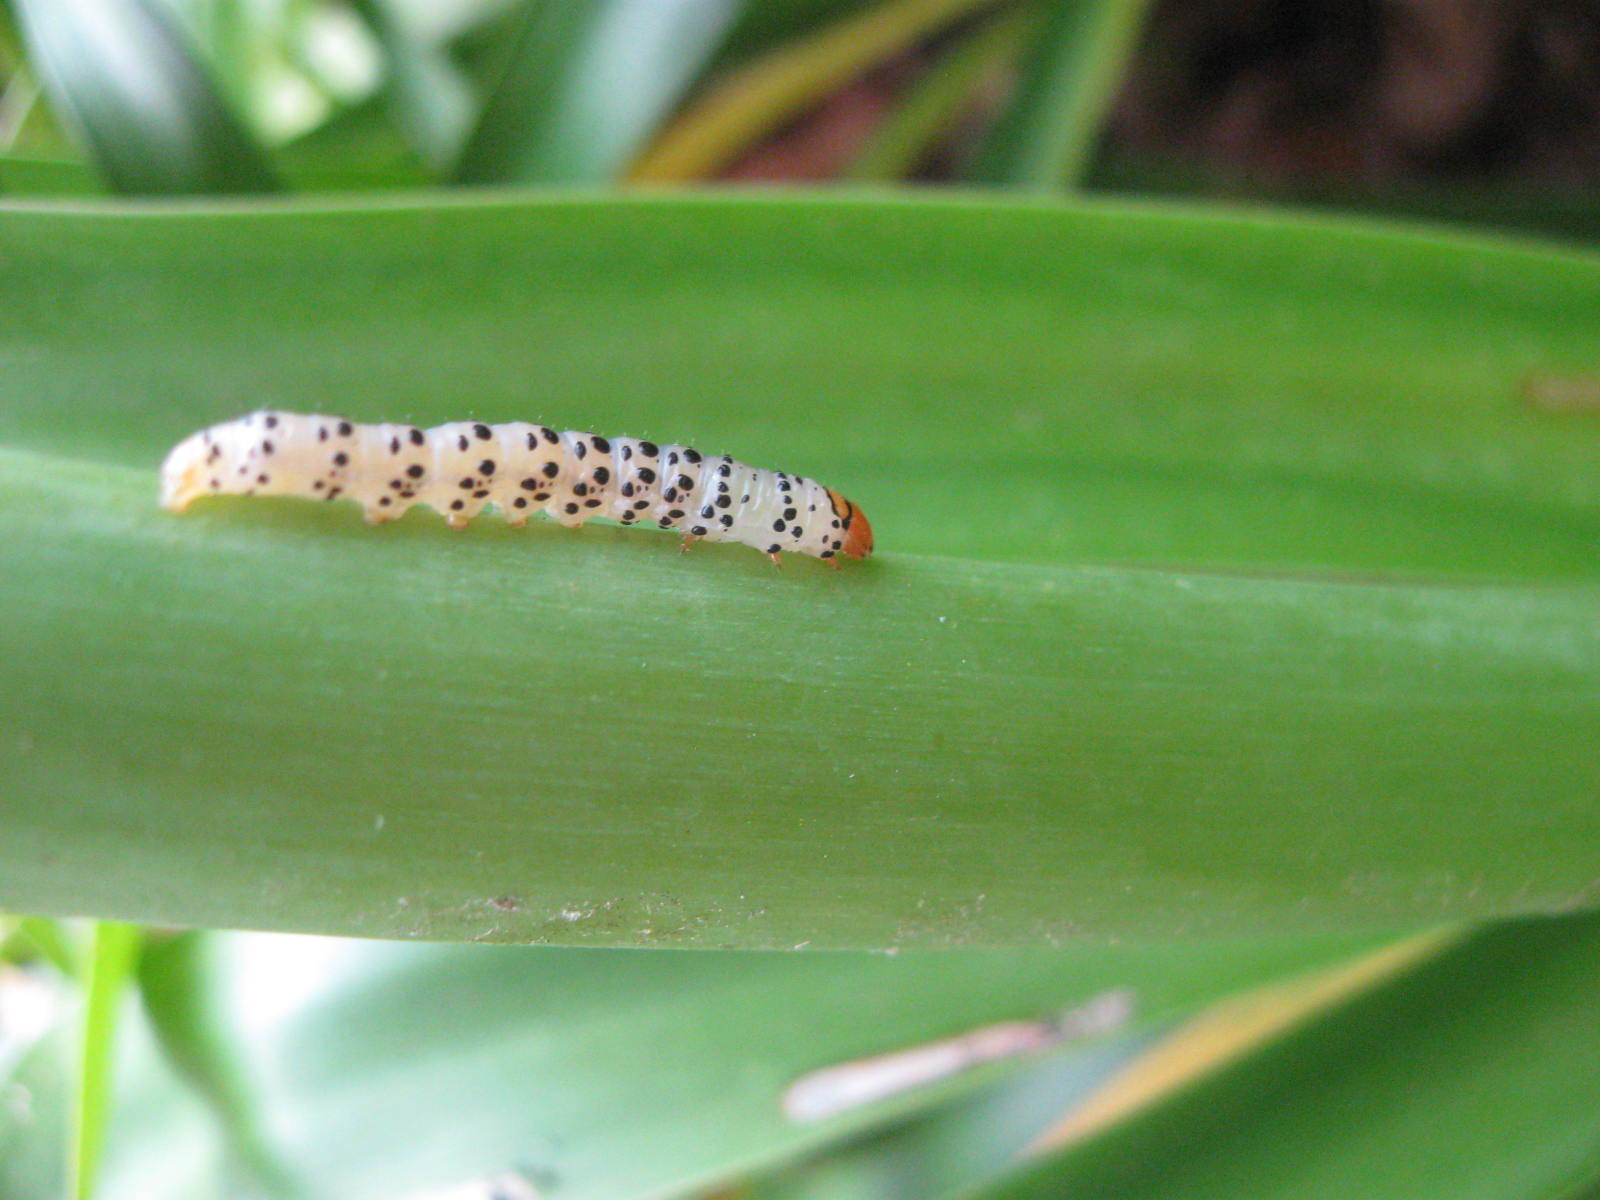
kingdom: Animalia
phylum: Arthropoda
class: Insecta
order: Lepidoptera
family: Noctuidae
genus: Neuranethes
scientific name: Neuranethes spodopterodes
